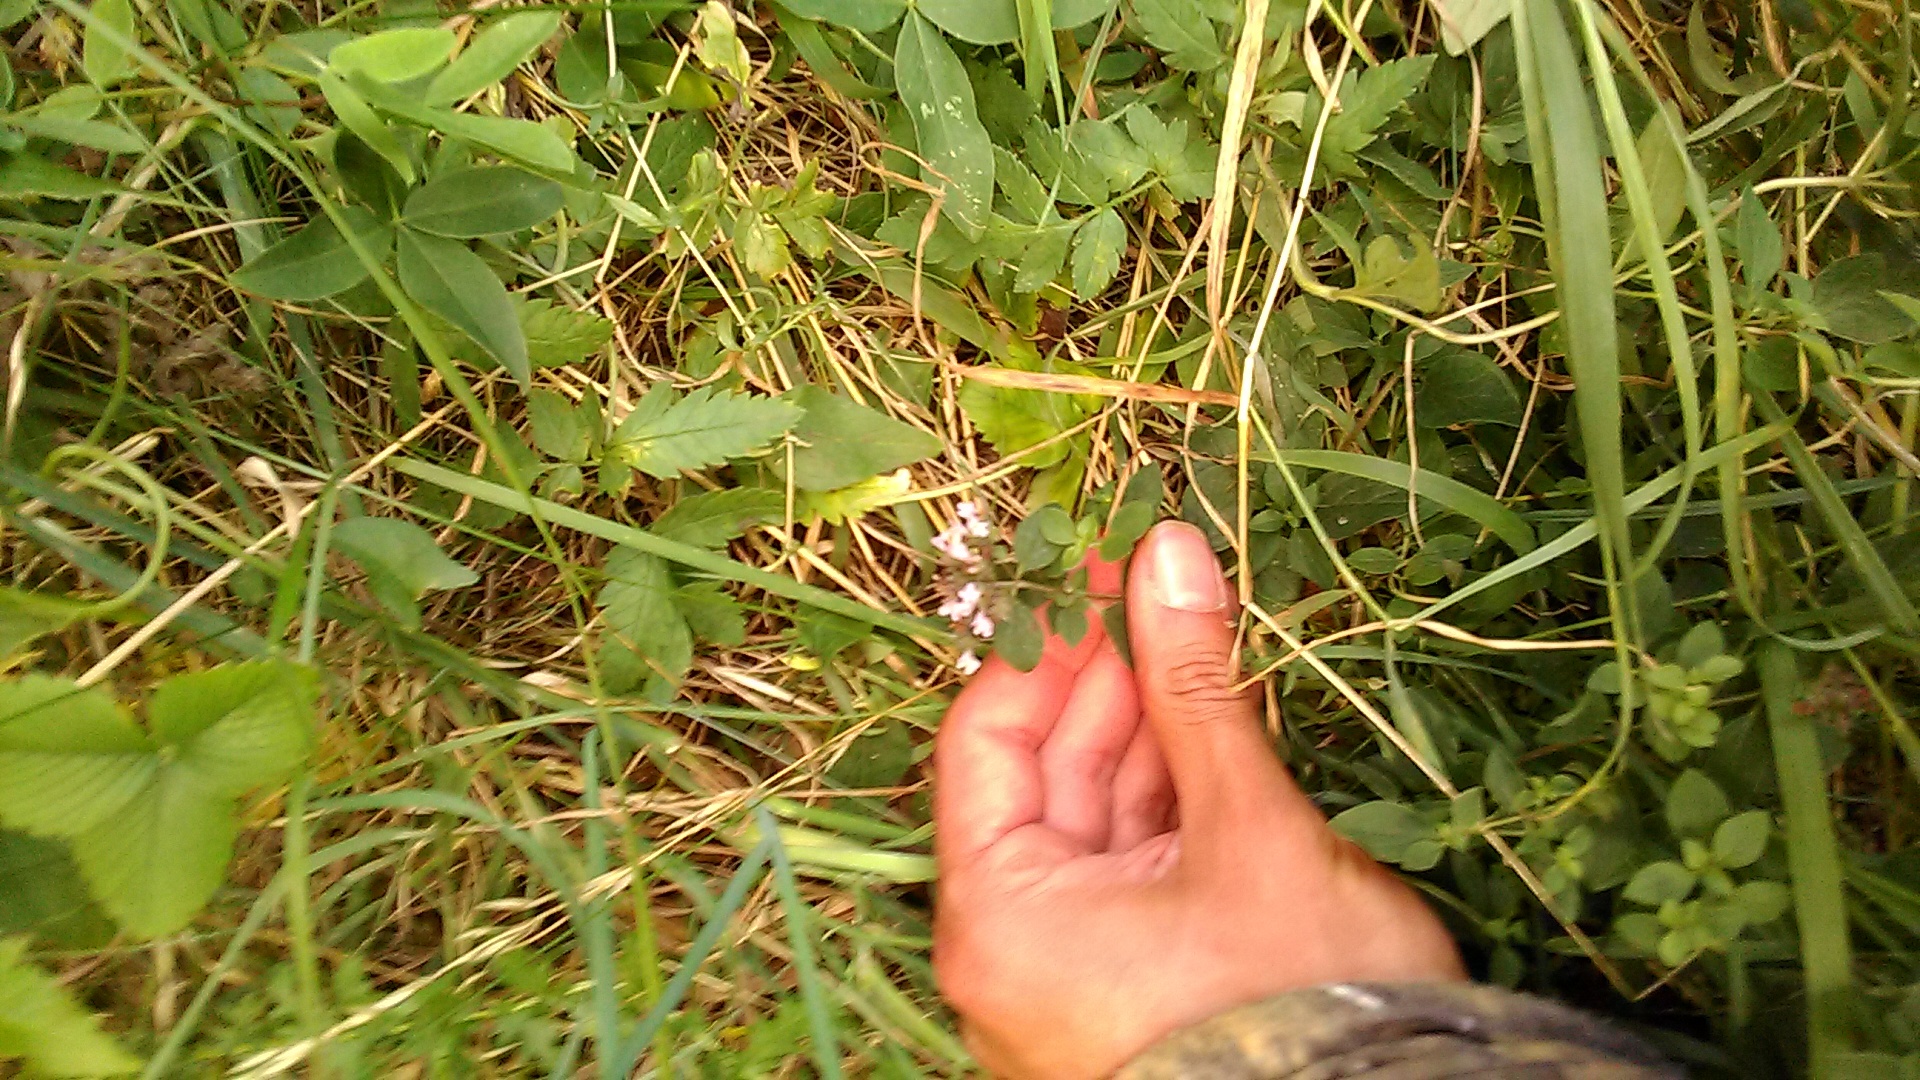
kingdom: Plantae
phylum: Tracheophyta
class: Magnoliopsida
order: Lamiales
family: Lamiaceae
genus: Origanum
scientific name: Origanum vulgare
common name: Wild marjoram
